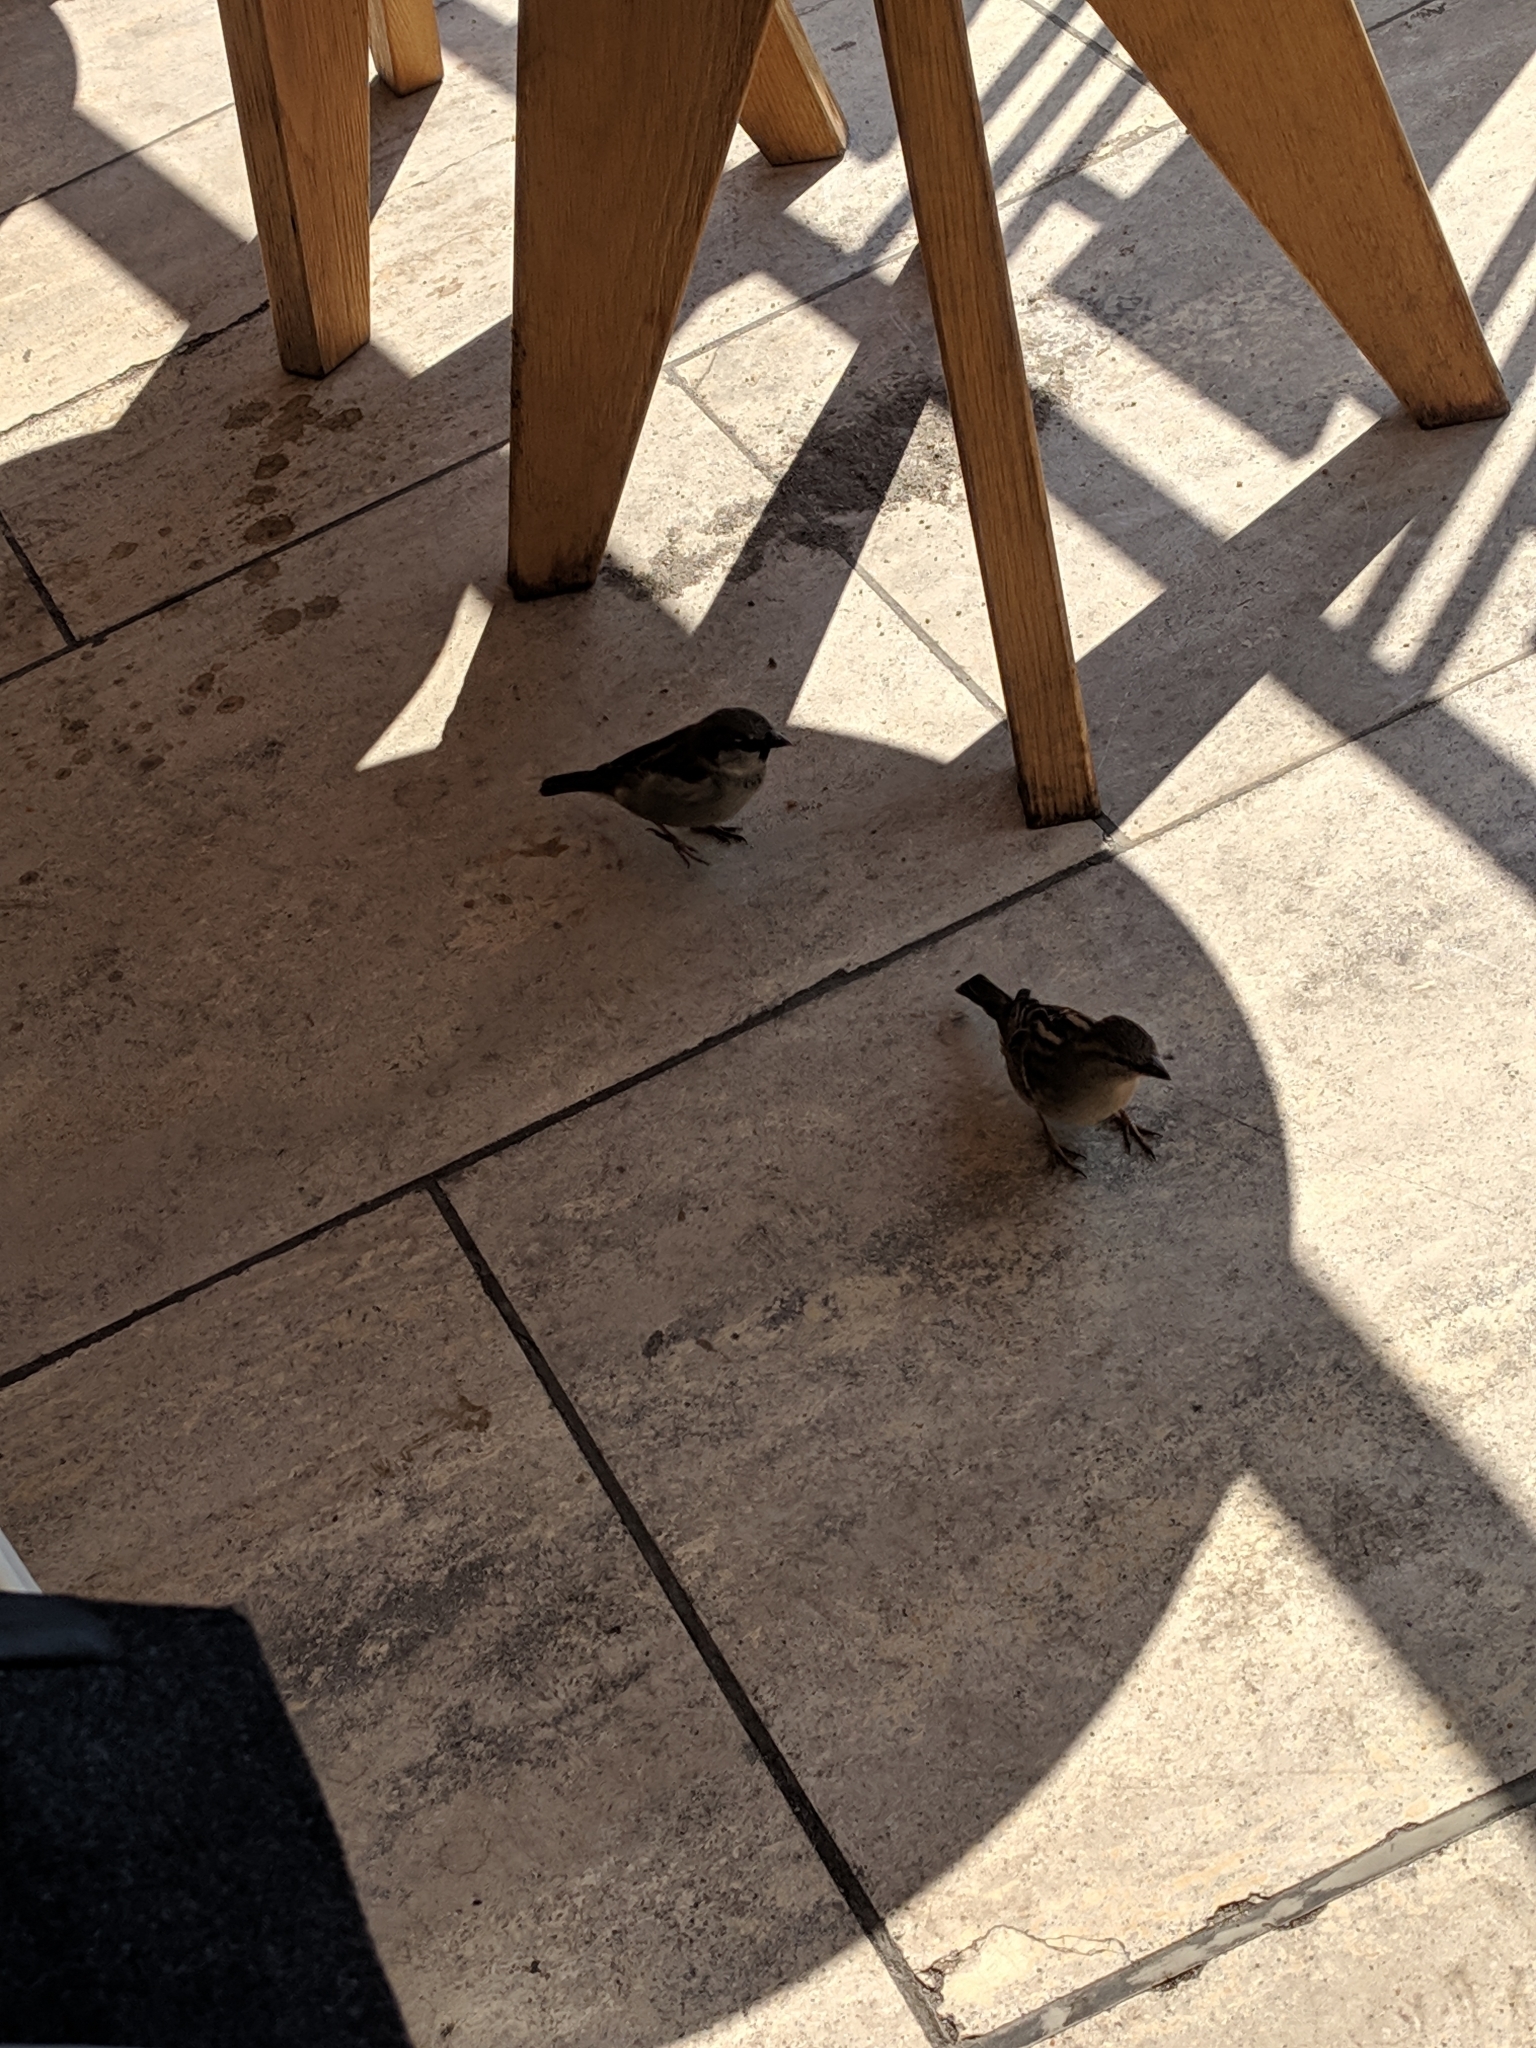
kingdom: Animalia
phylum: Chordata
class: Aves
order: Passeriformes
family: Passeridae
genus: Passer
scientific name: Passer domesticus
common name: House sparrow
